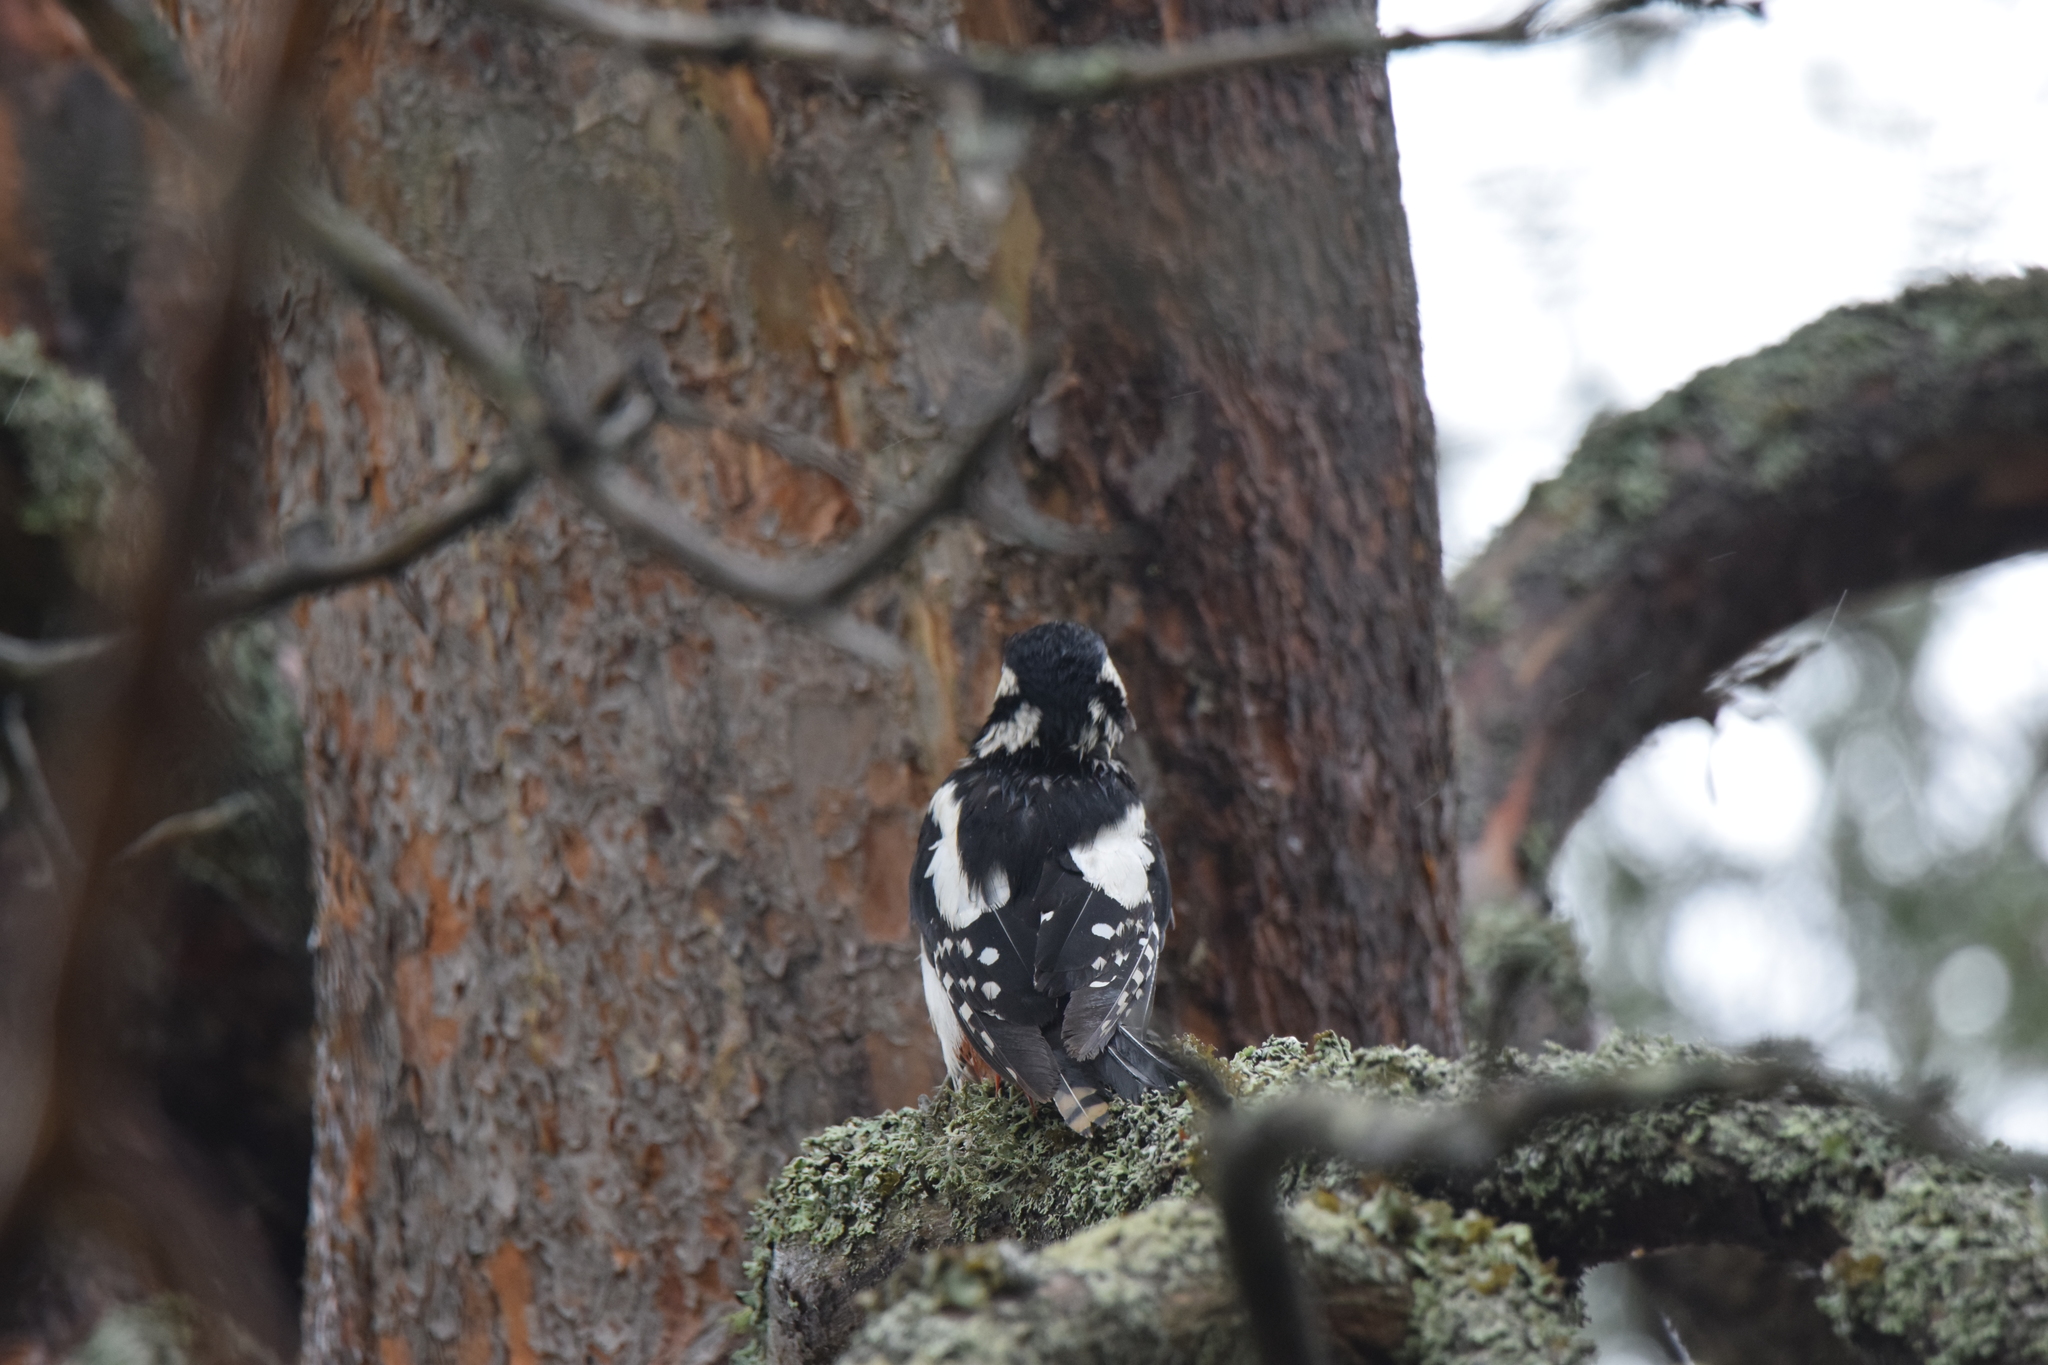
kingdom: Animalia
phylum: Chordata
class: Aves
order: Piciformes
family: Picidae
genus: Dendrocopos
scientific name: Dendrocopos major
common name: Great spotted woodpecker
